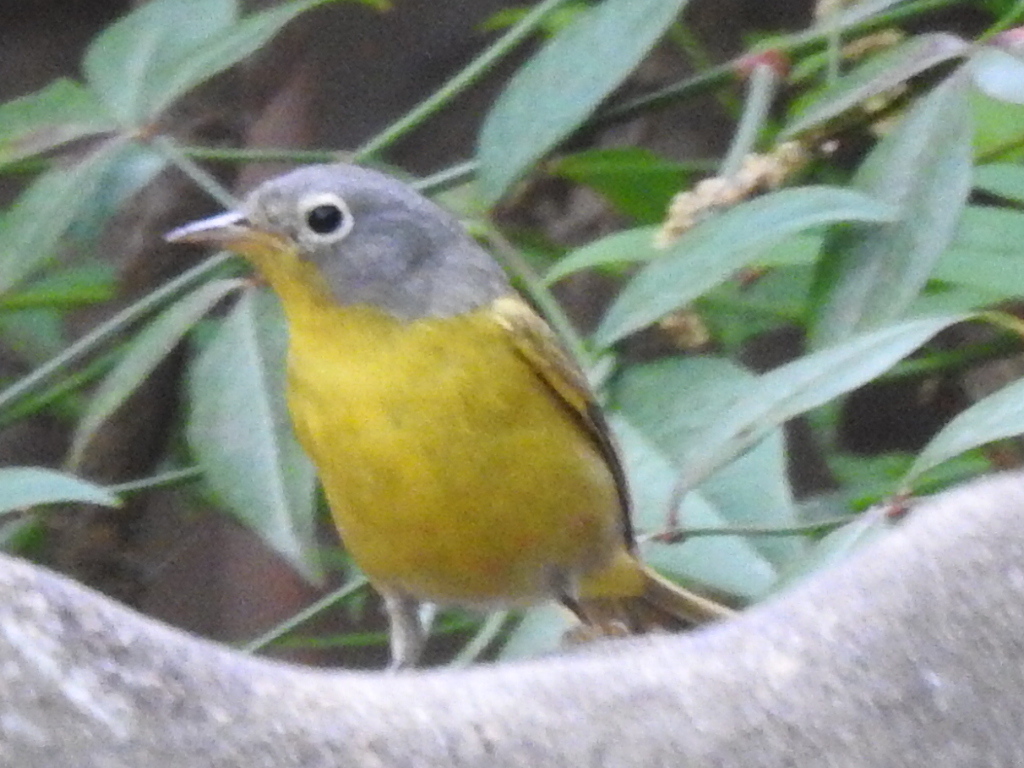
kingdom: Animalia
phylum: Chordata
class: Aves
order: Passeriformes
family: Parulidae
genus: Leiothlypis
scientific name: Leiothlypis ruficapilla
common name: Nashville warbler
